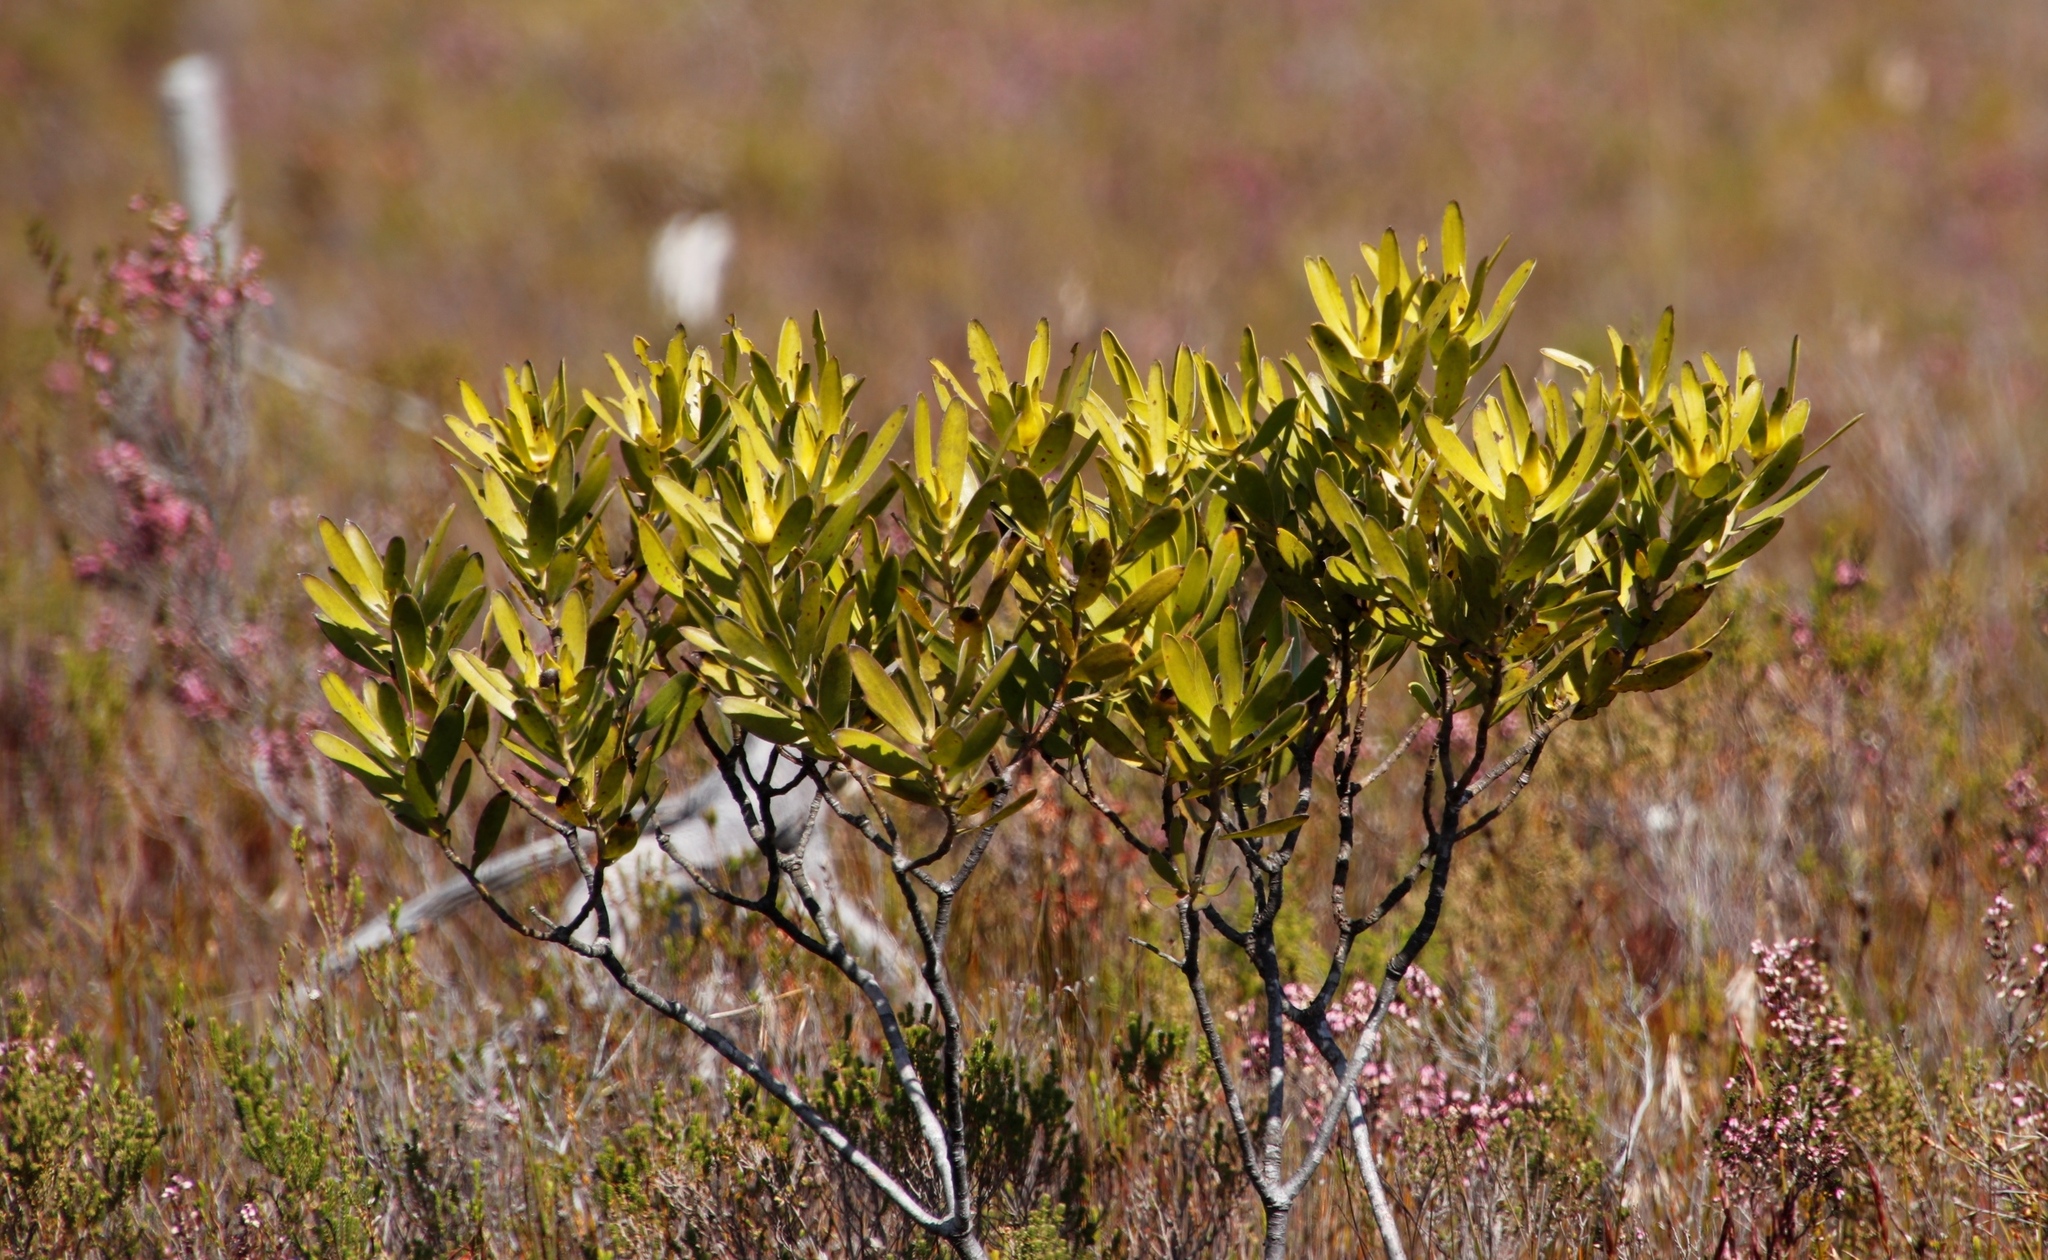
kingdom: Plantae
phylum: Tracheophyta
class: Magnoliopsida
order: Proteales
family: Proteaceae
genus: Leucadendron
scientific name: Leucadendron laureolum
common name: Golden sunshinebush
